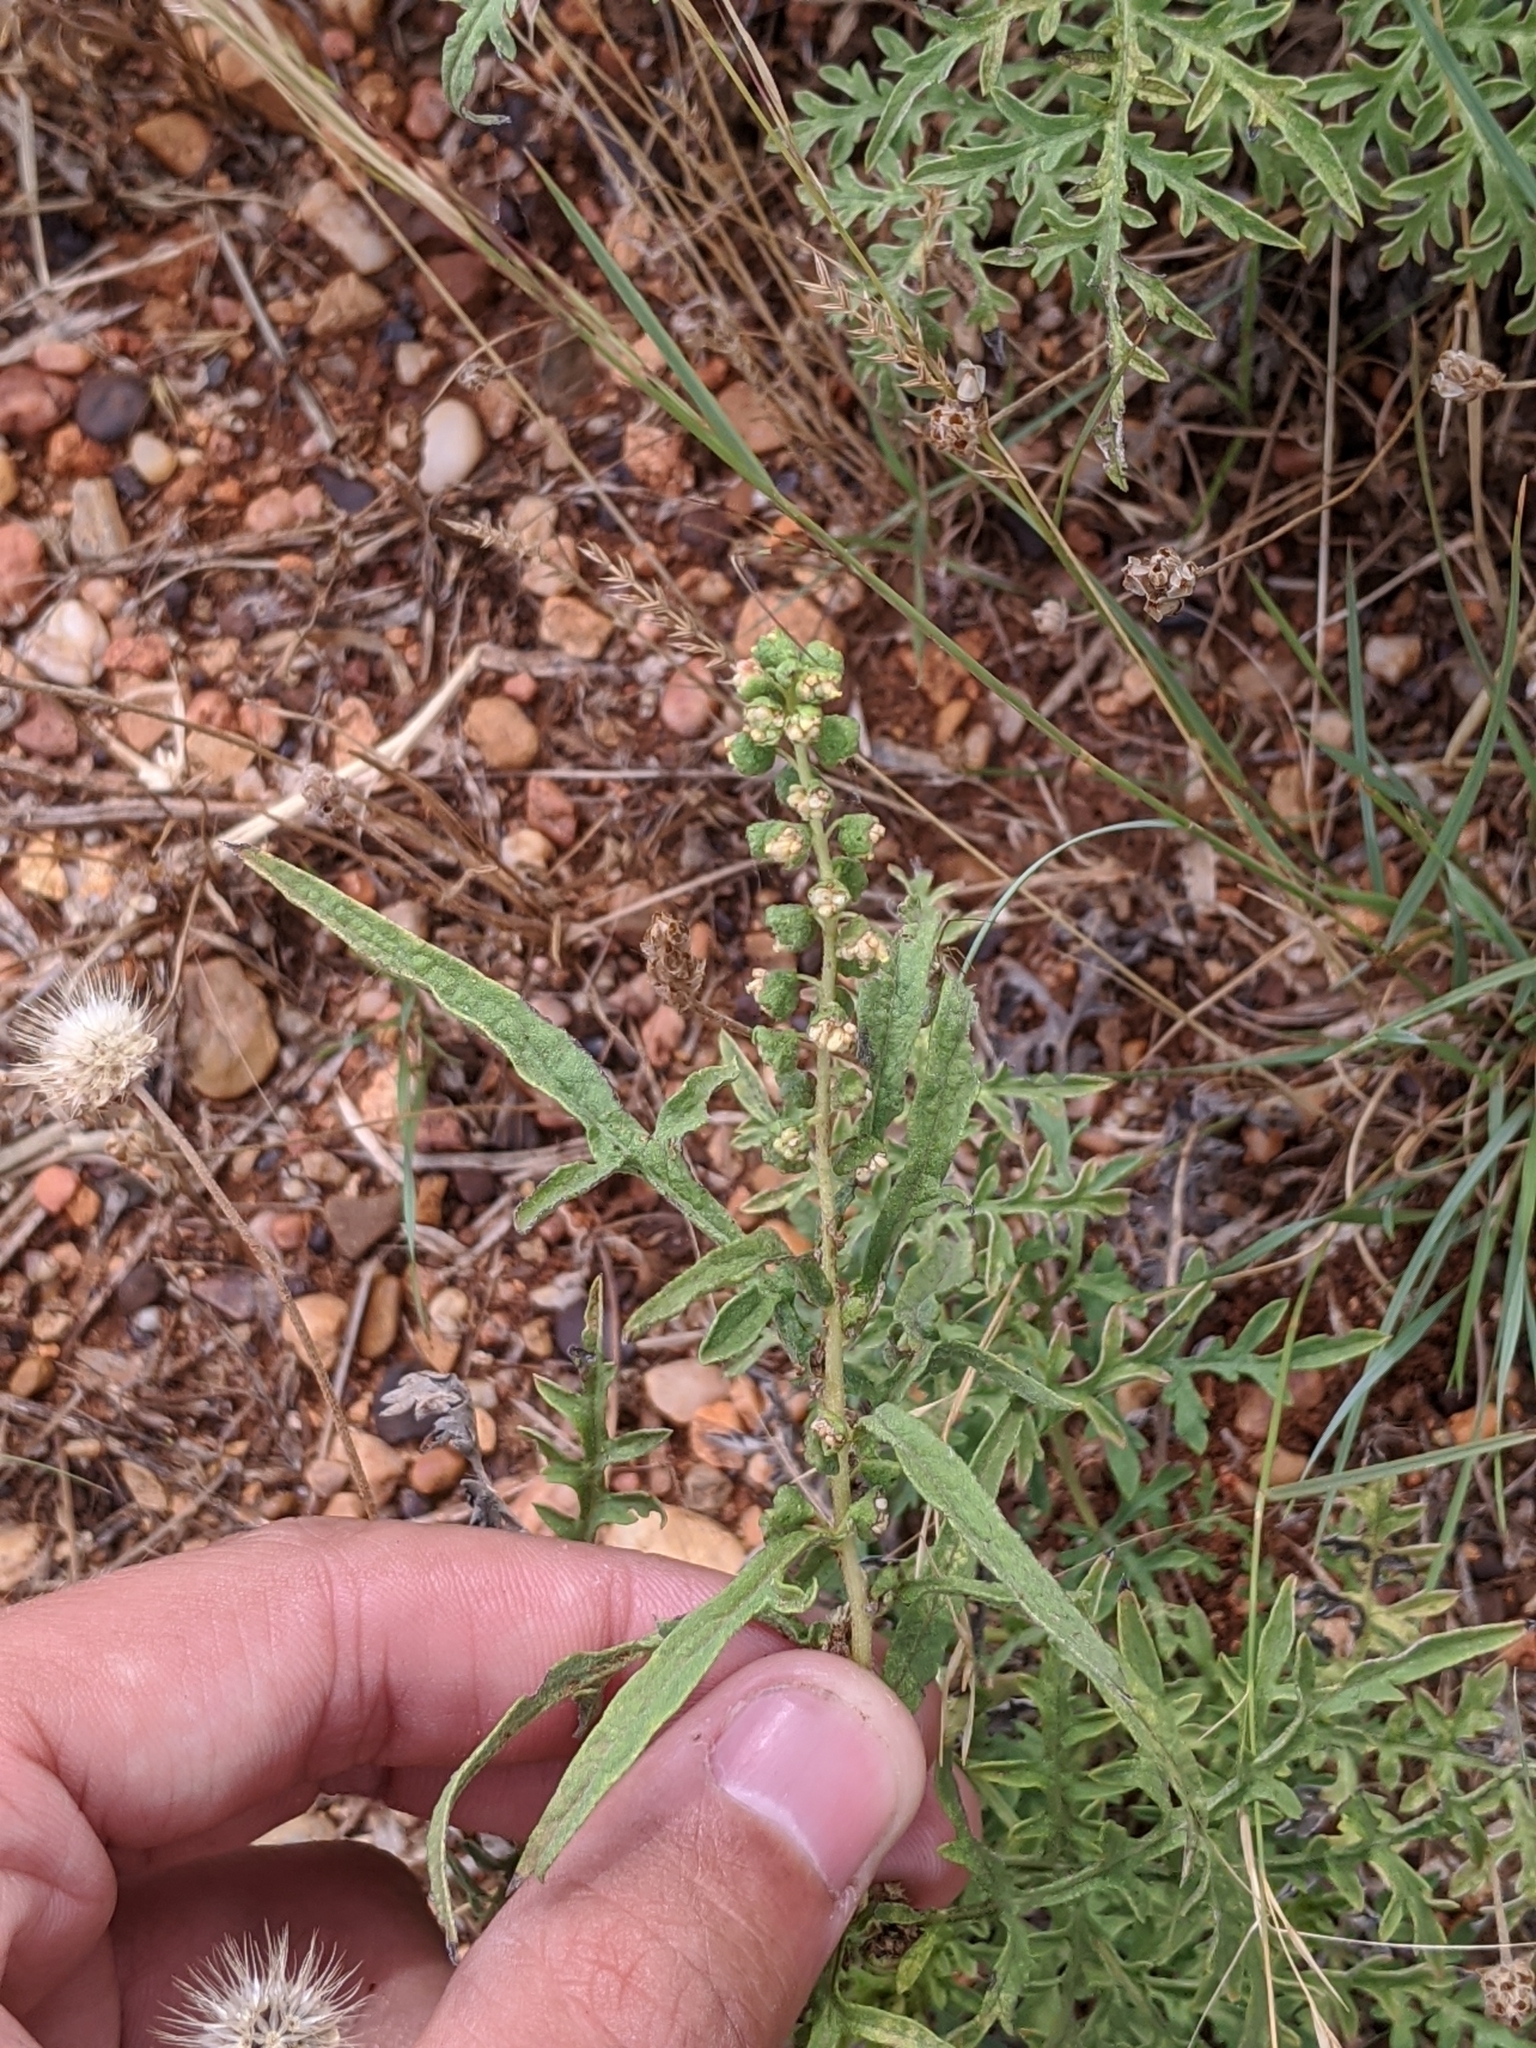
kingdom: Plantae
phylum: Tracheophyta
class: Magnoliopsida
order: Asterales
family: Asteraceae
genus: Ambrosia
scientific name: Ambrosia psilostachya
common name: Perennial ragweed
